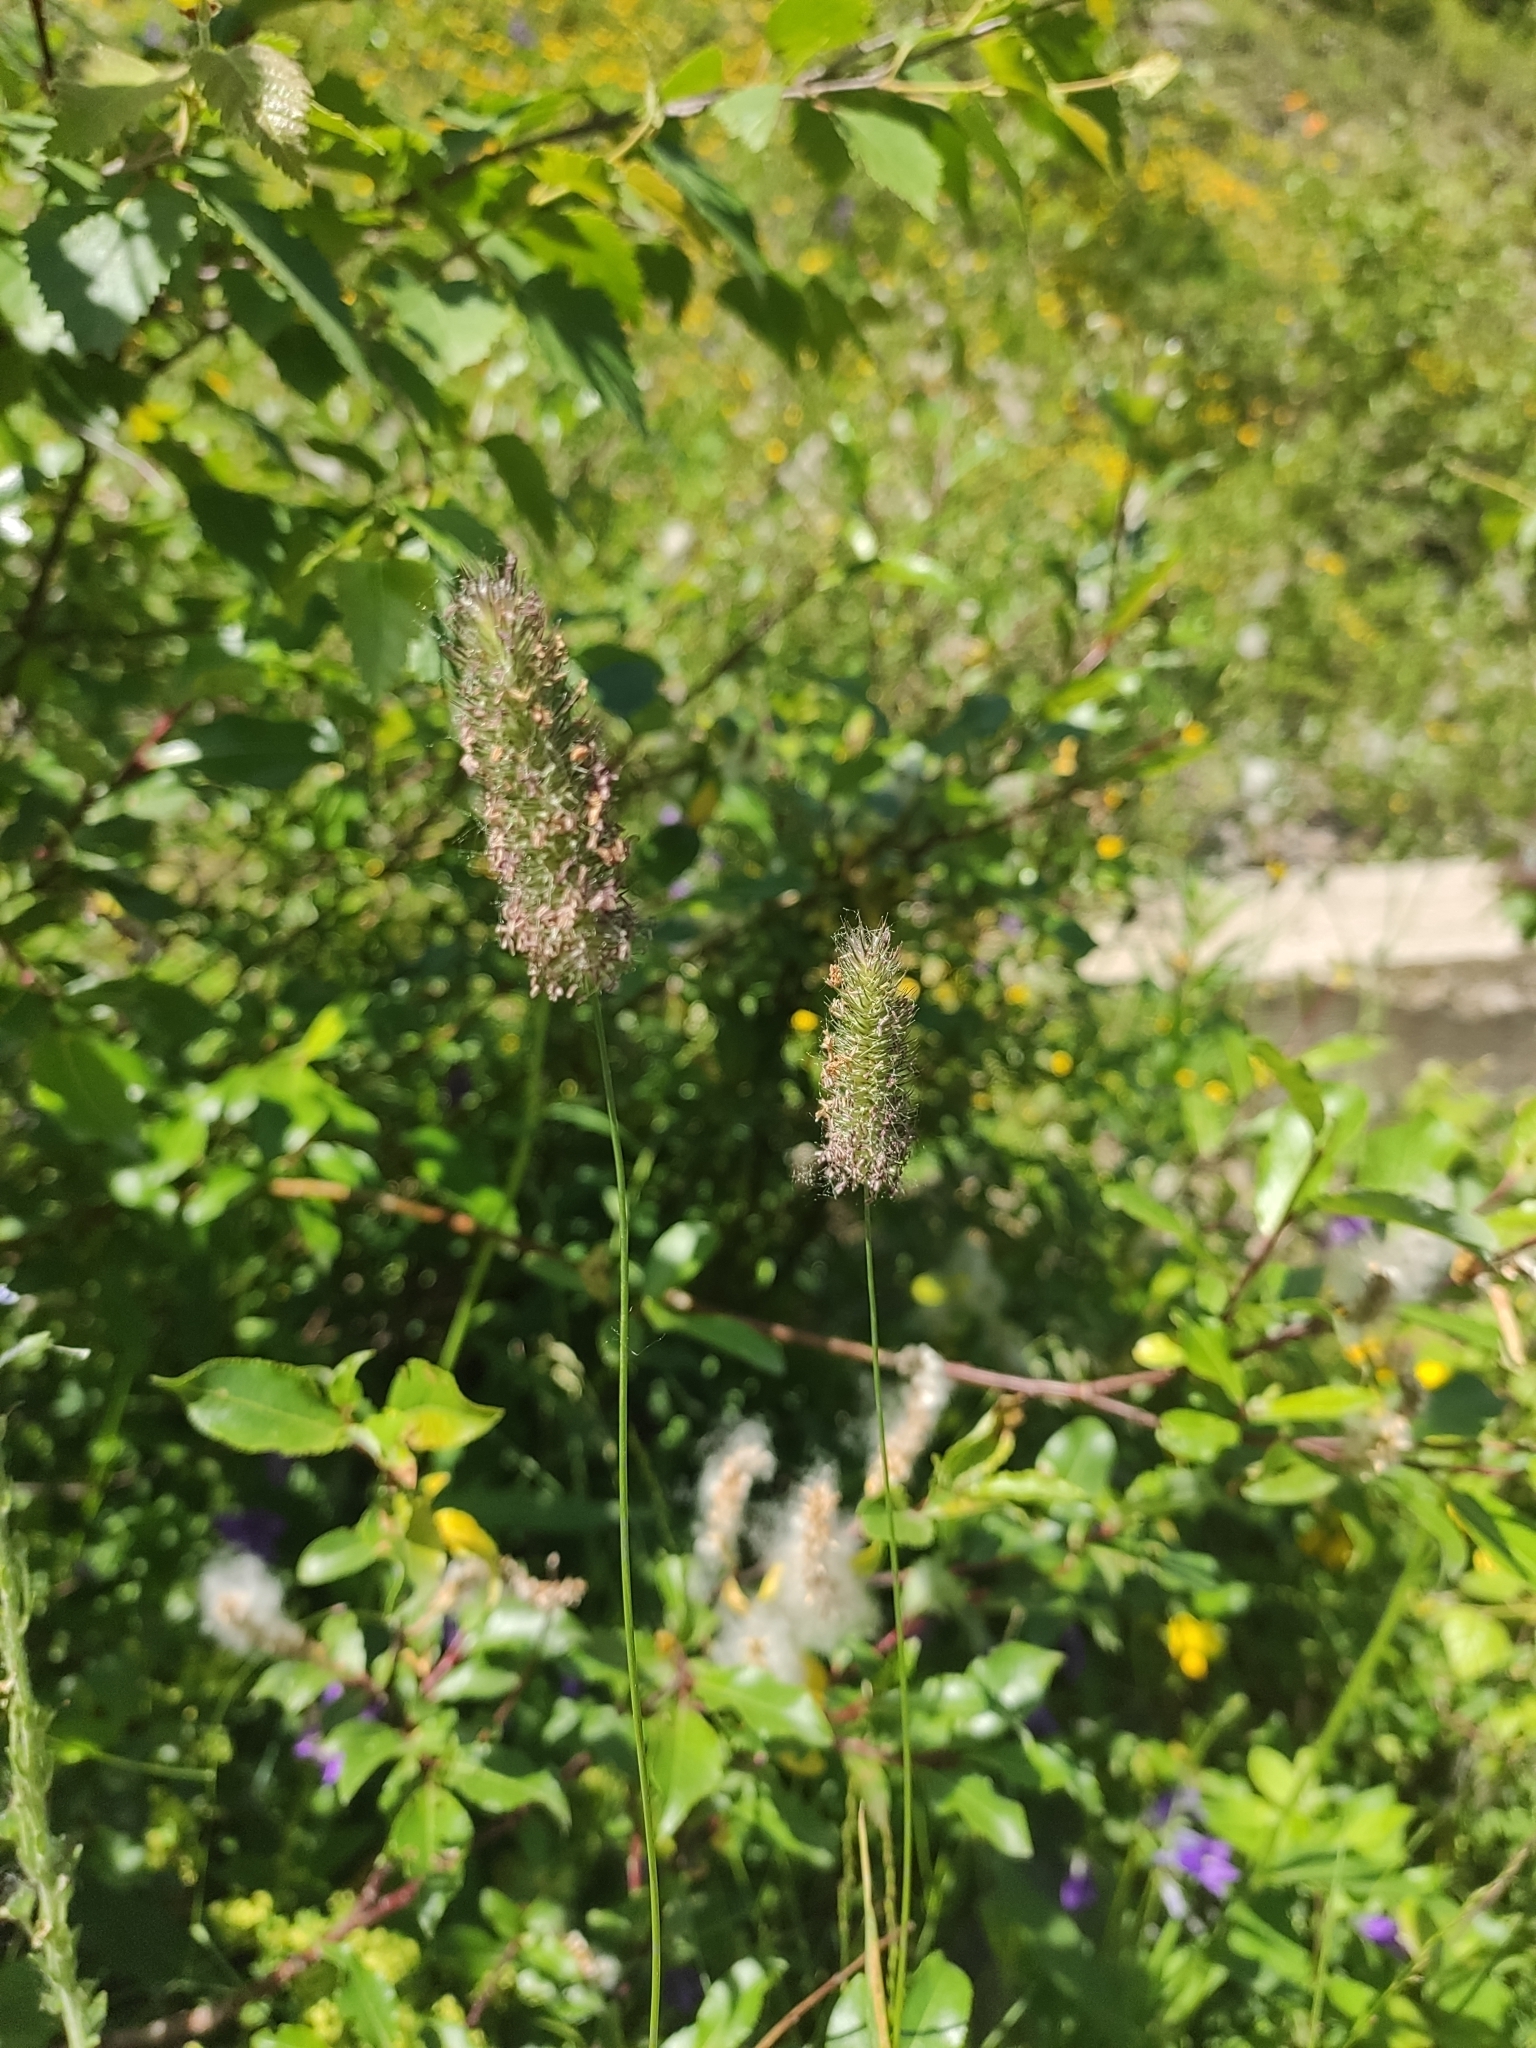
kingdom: Plantae
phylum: Tracheophyta
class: Liliopsida
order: Poales
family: Poaceae
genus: Phleum
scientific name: Phleum alpinum
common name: Alpine cat's-tail
